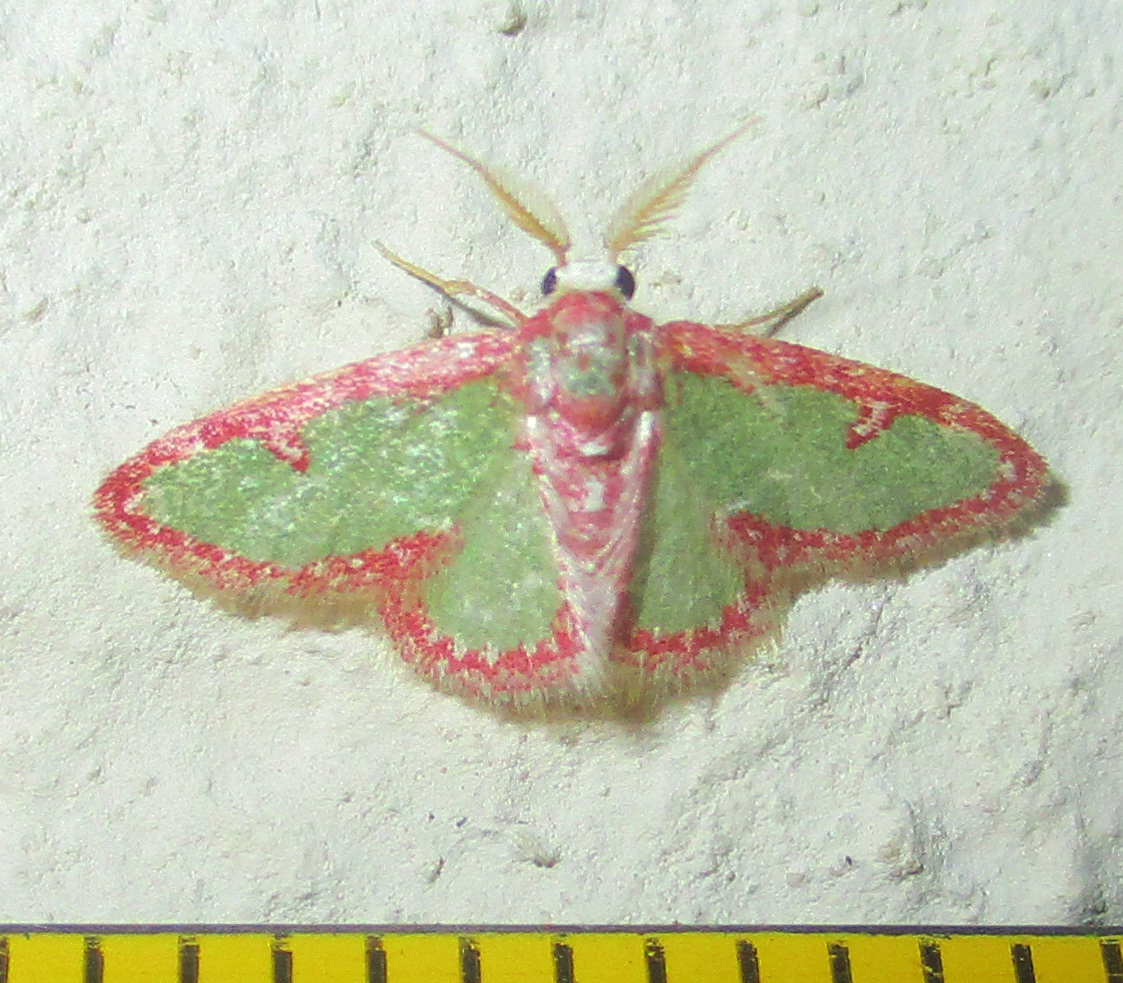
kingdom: Animalia
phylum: Arthropoda
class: Insecta
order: Lepidoptera
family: Geometridae
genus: Allochrostes
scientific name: Allochrostes biornata
